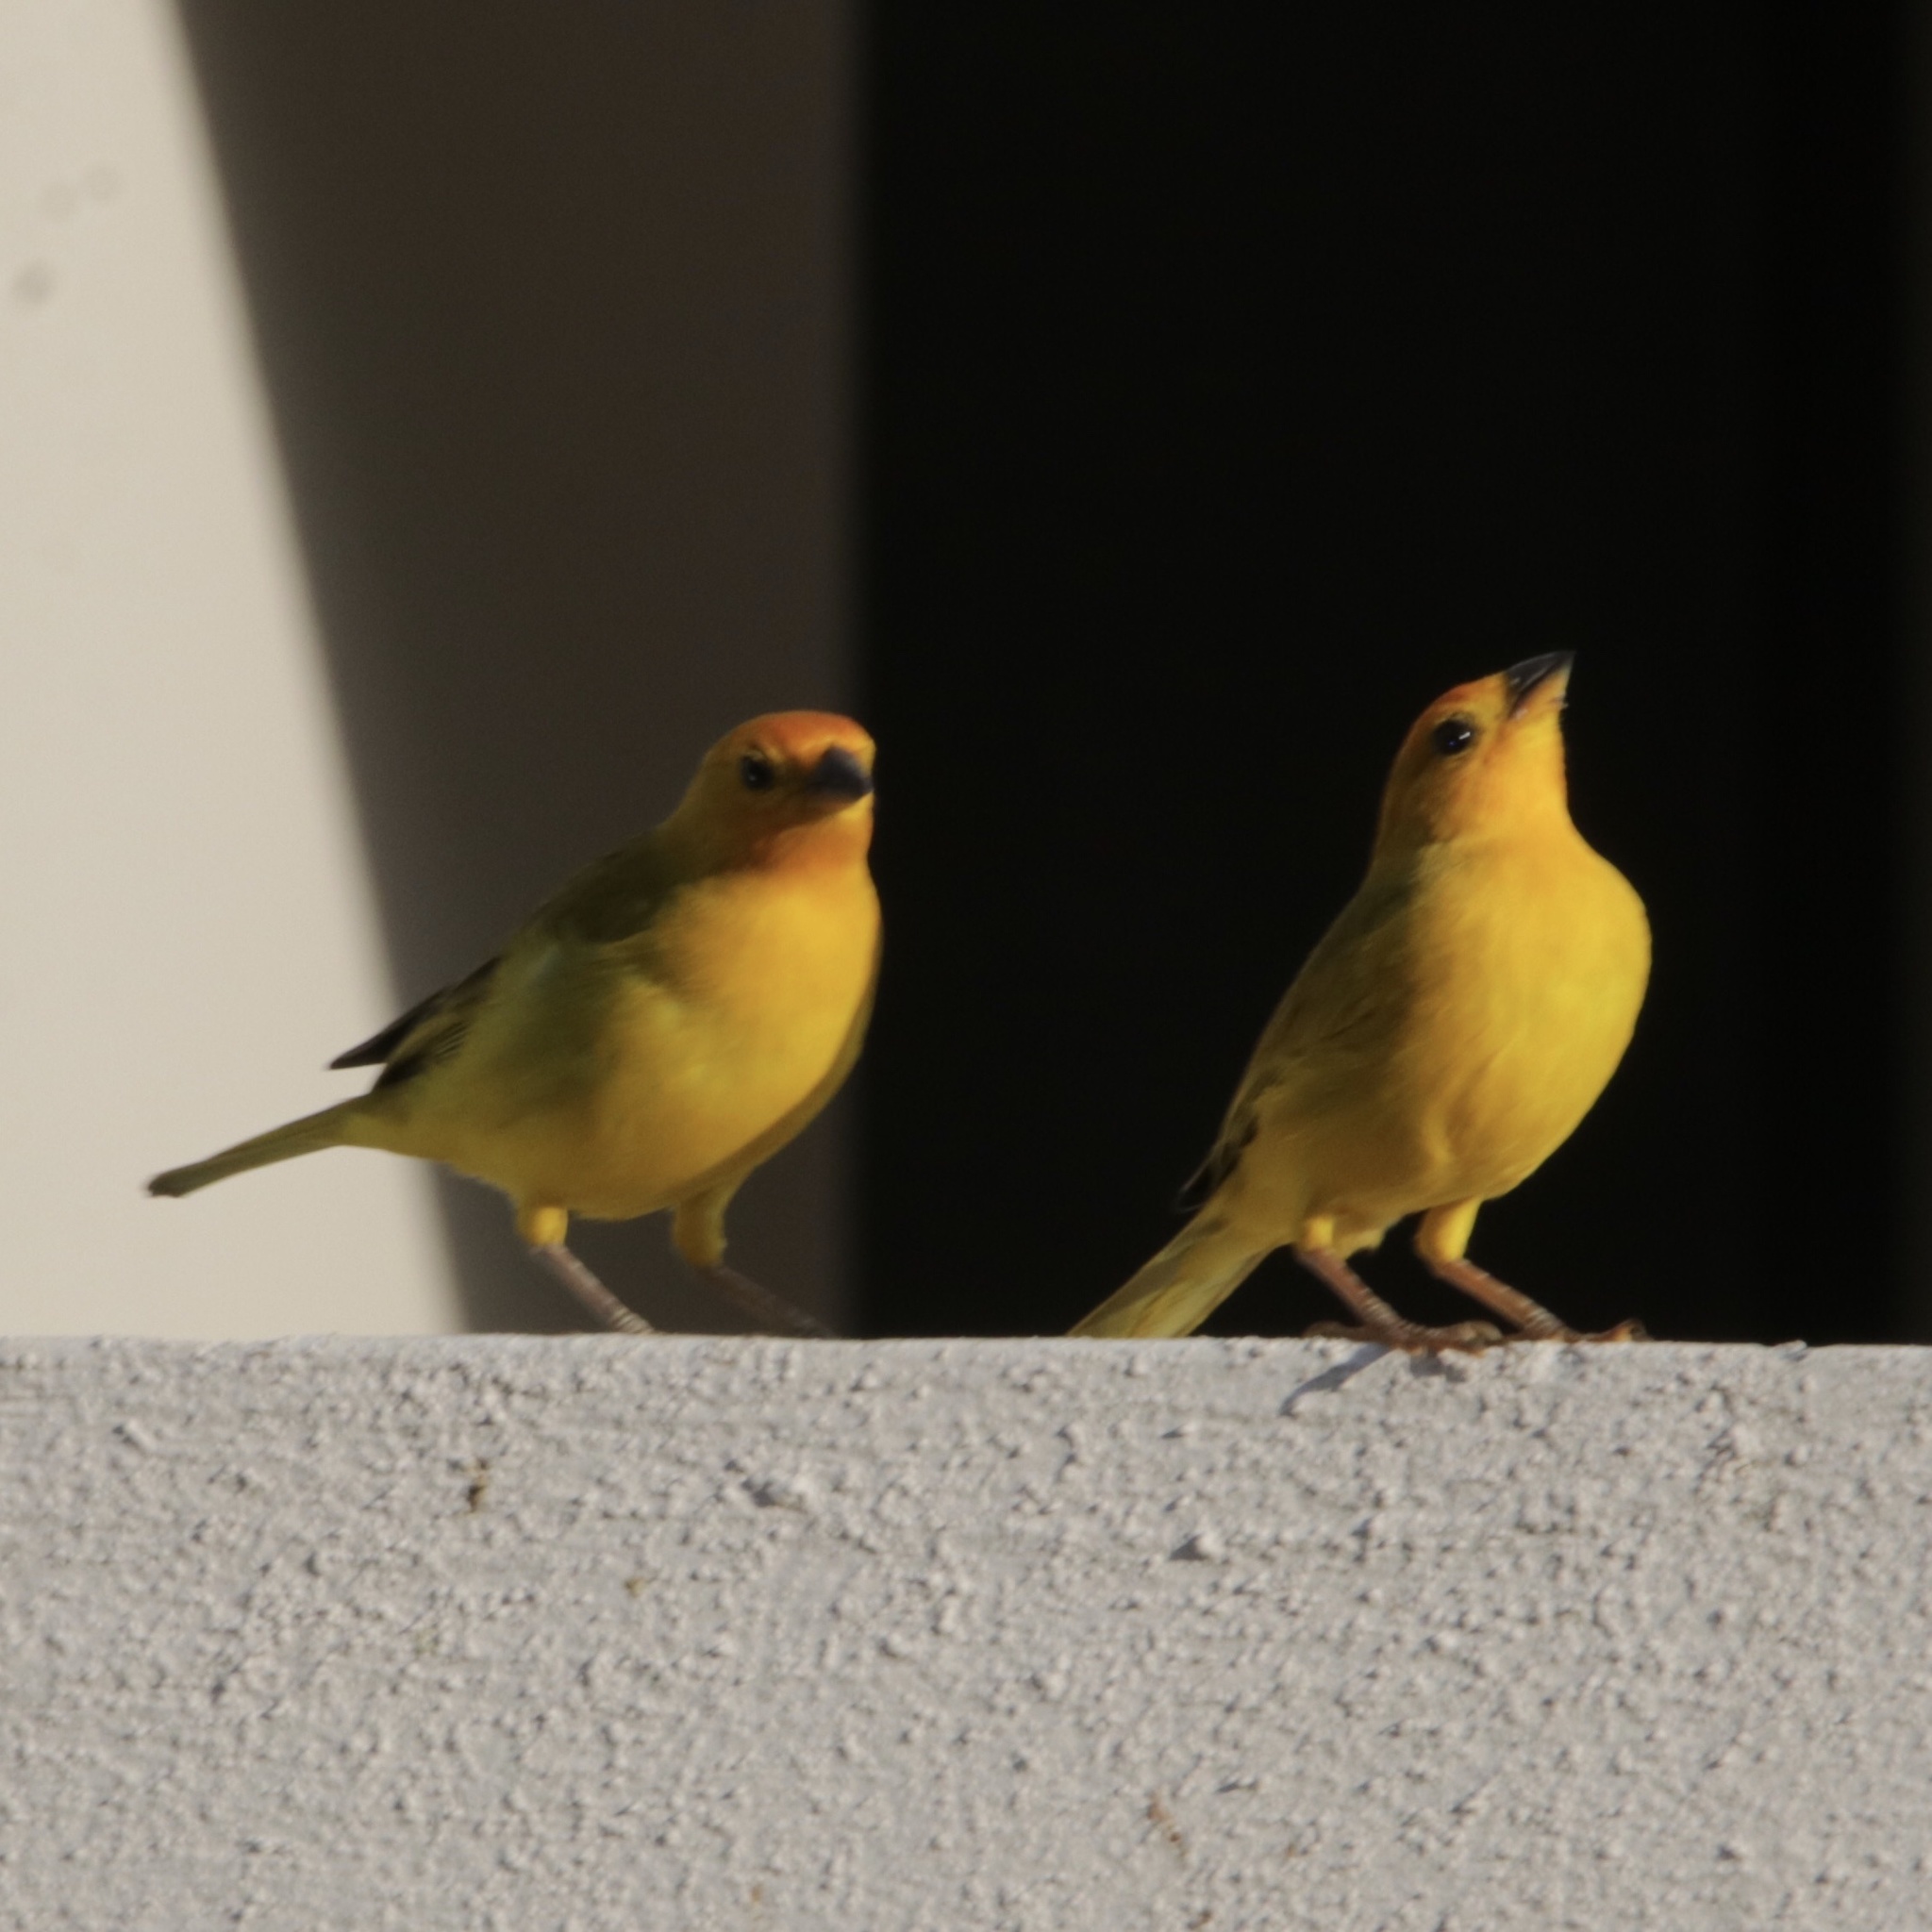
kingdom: Animalia
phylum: Chordata
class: Aves
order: Passeriformes
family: Thraupidae
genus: Sicalis
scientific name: Sicalis flaveola
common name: Saffron finch
